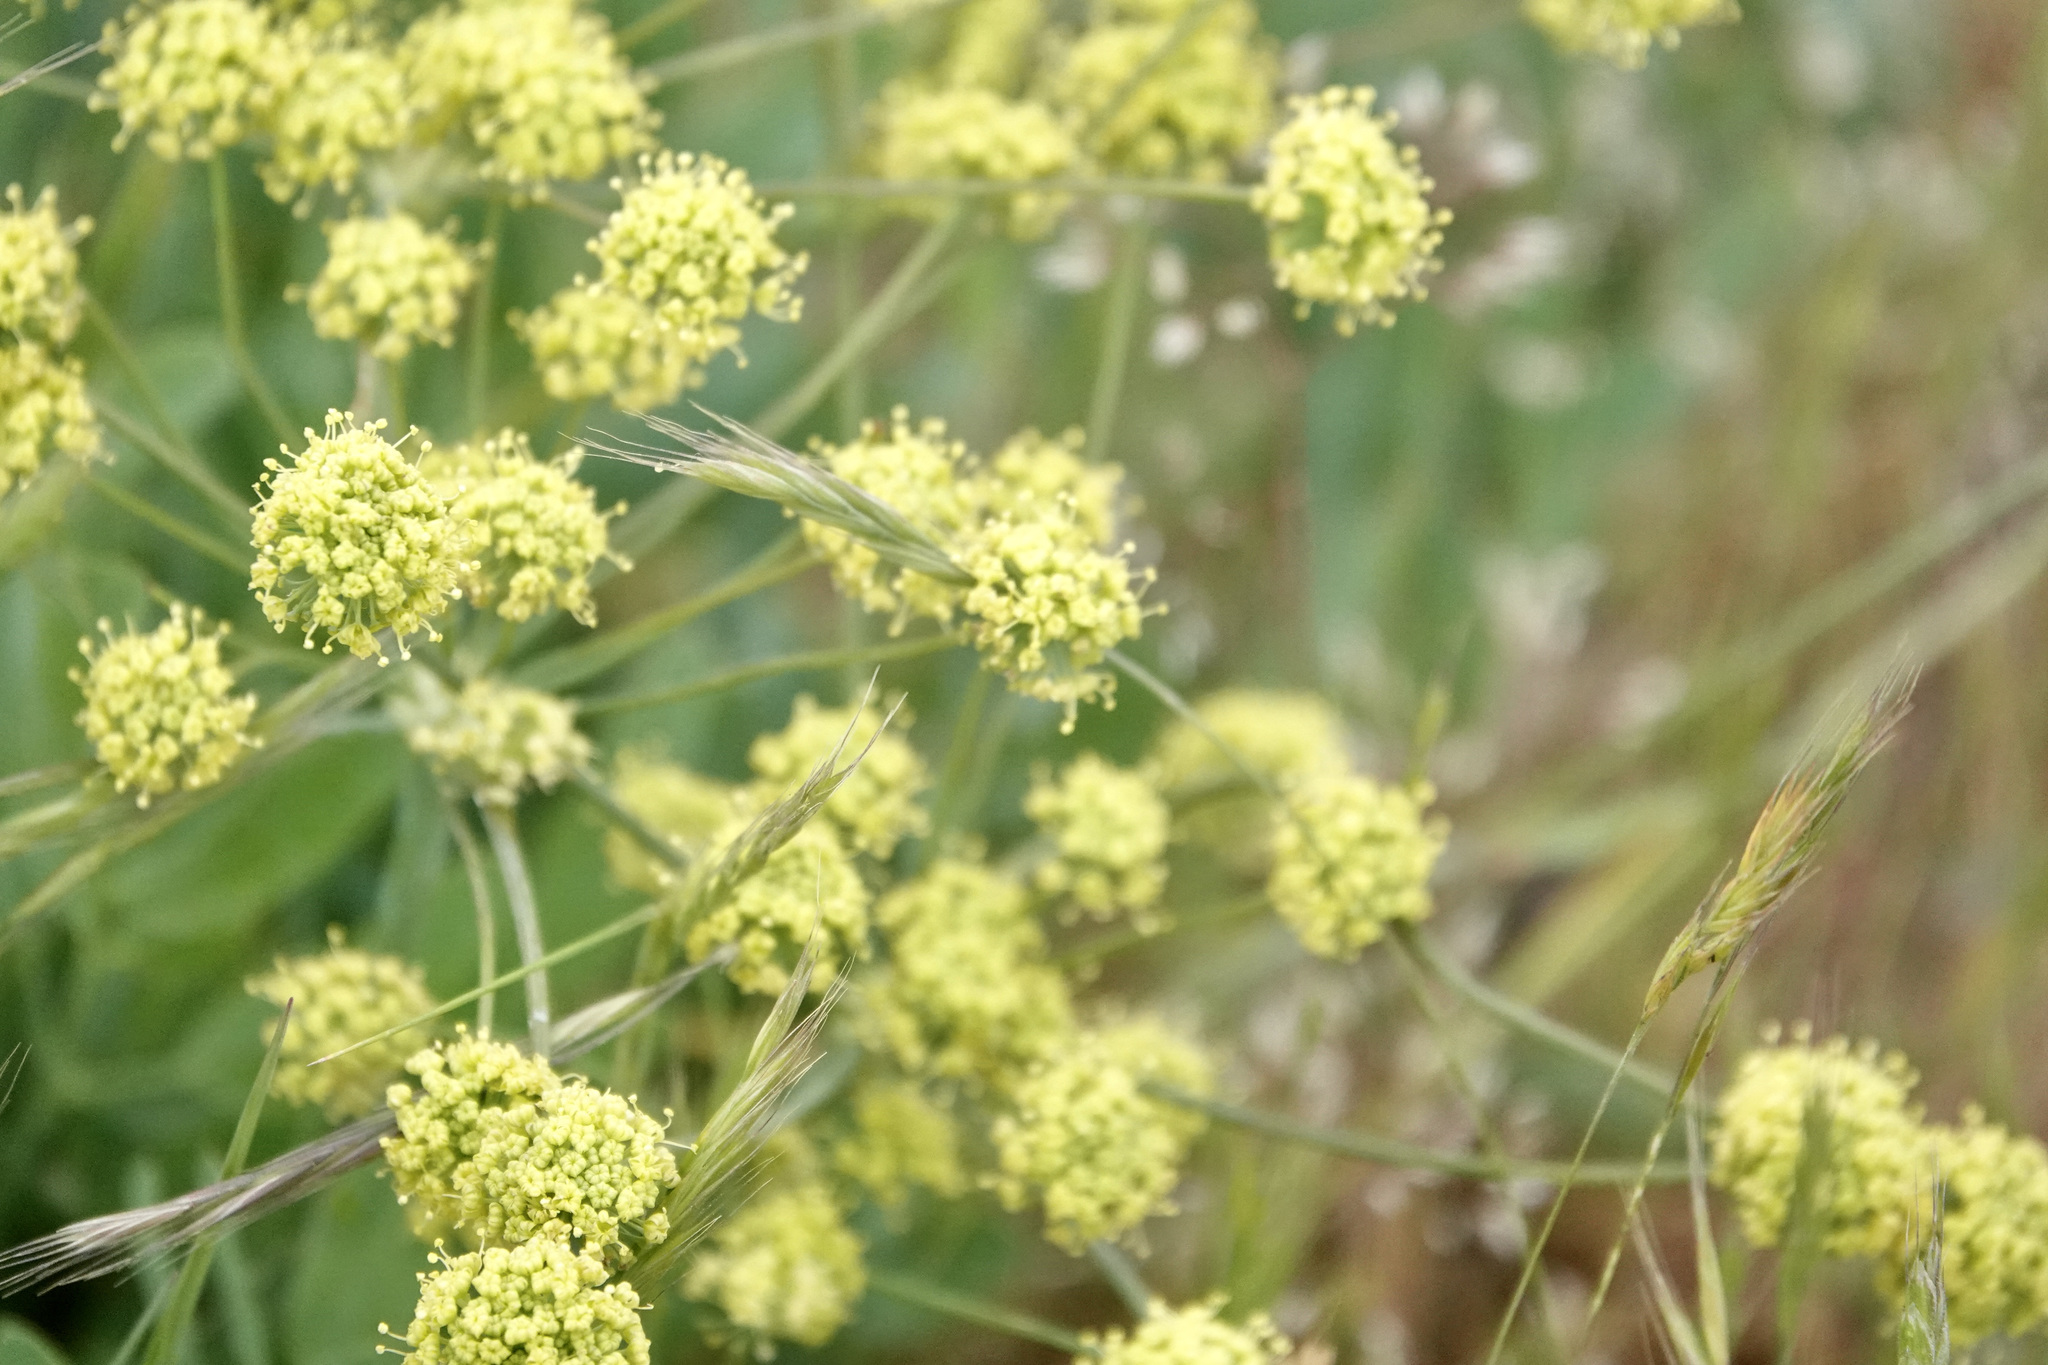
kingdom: Plantae
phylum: Tracheophyta
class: Magnoliopsida
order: Apiales
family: Apiaceae
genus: Lomatium
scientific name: Lomatium nudicaule
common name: Pestle lomatium
